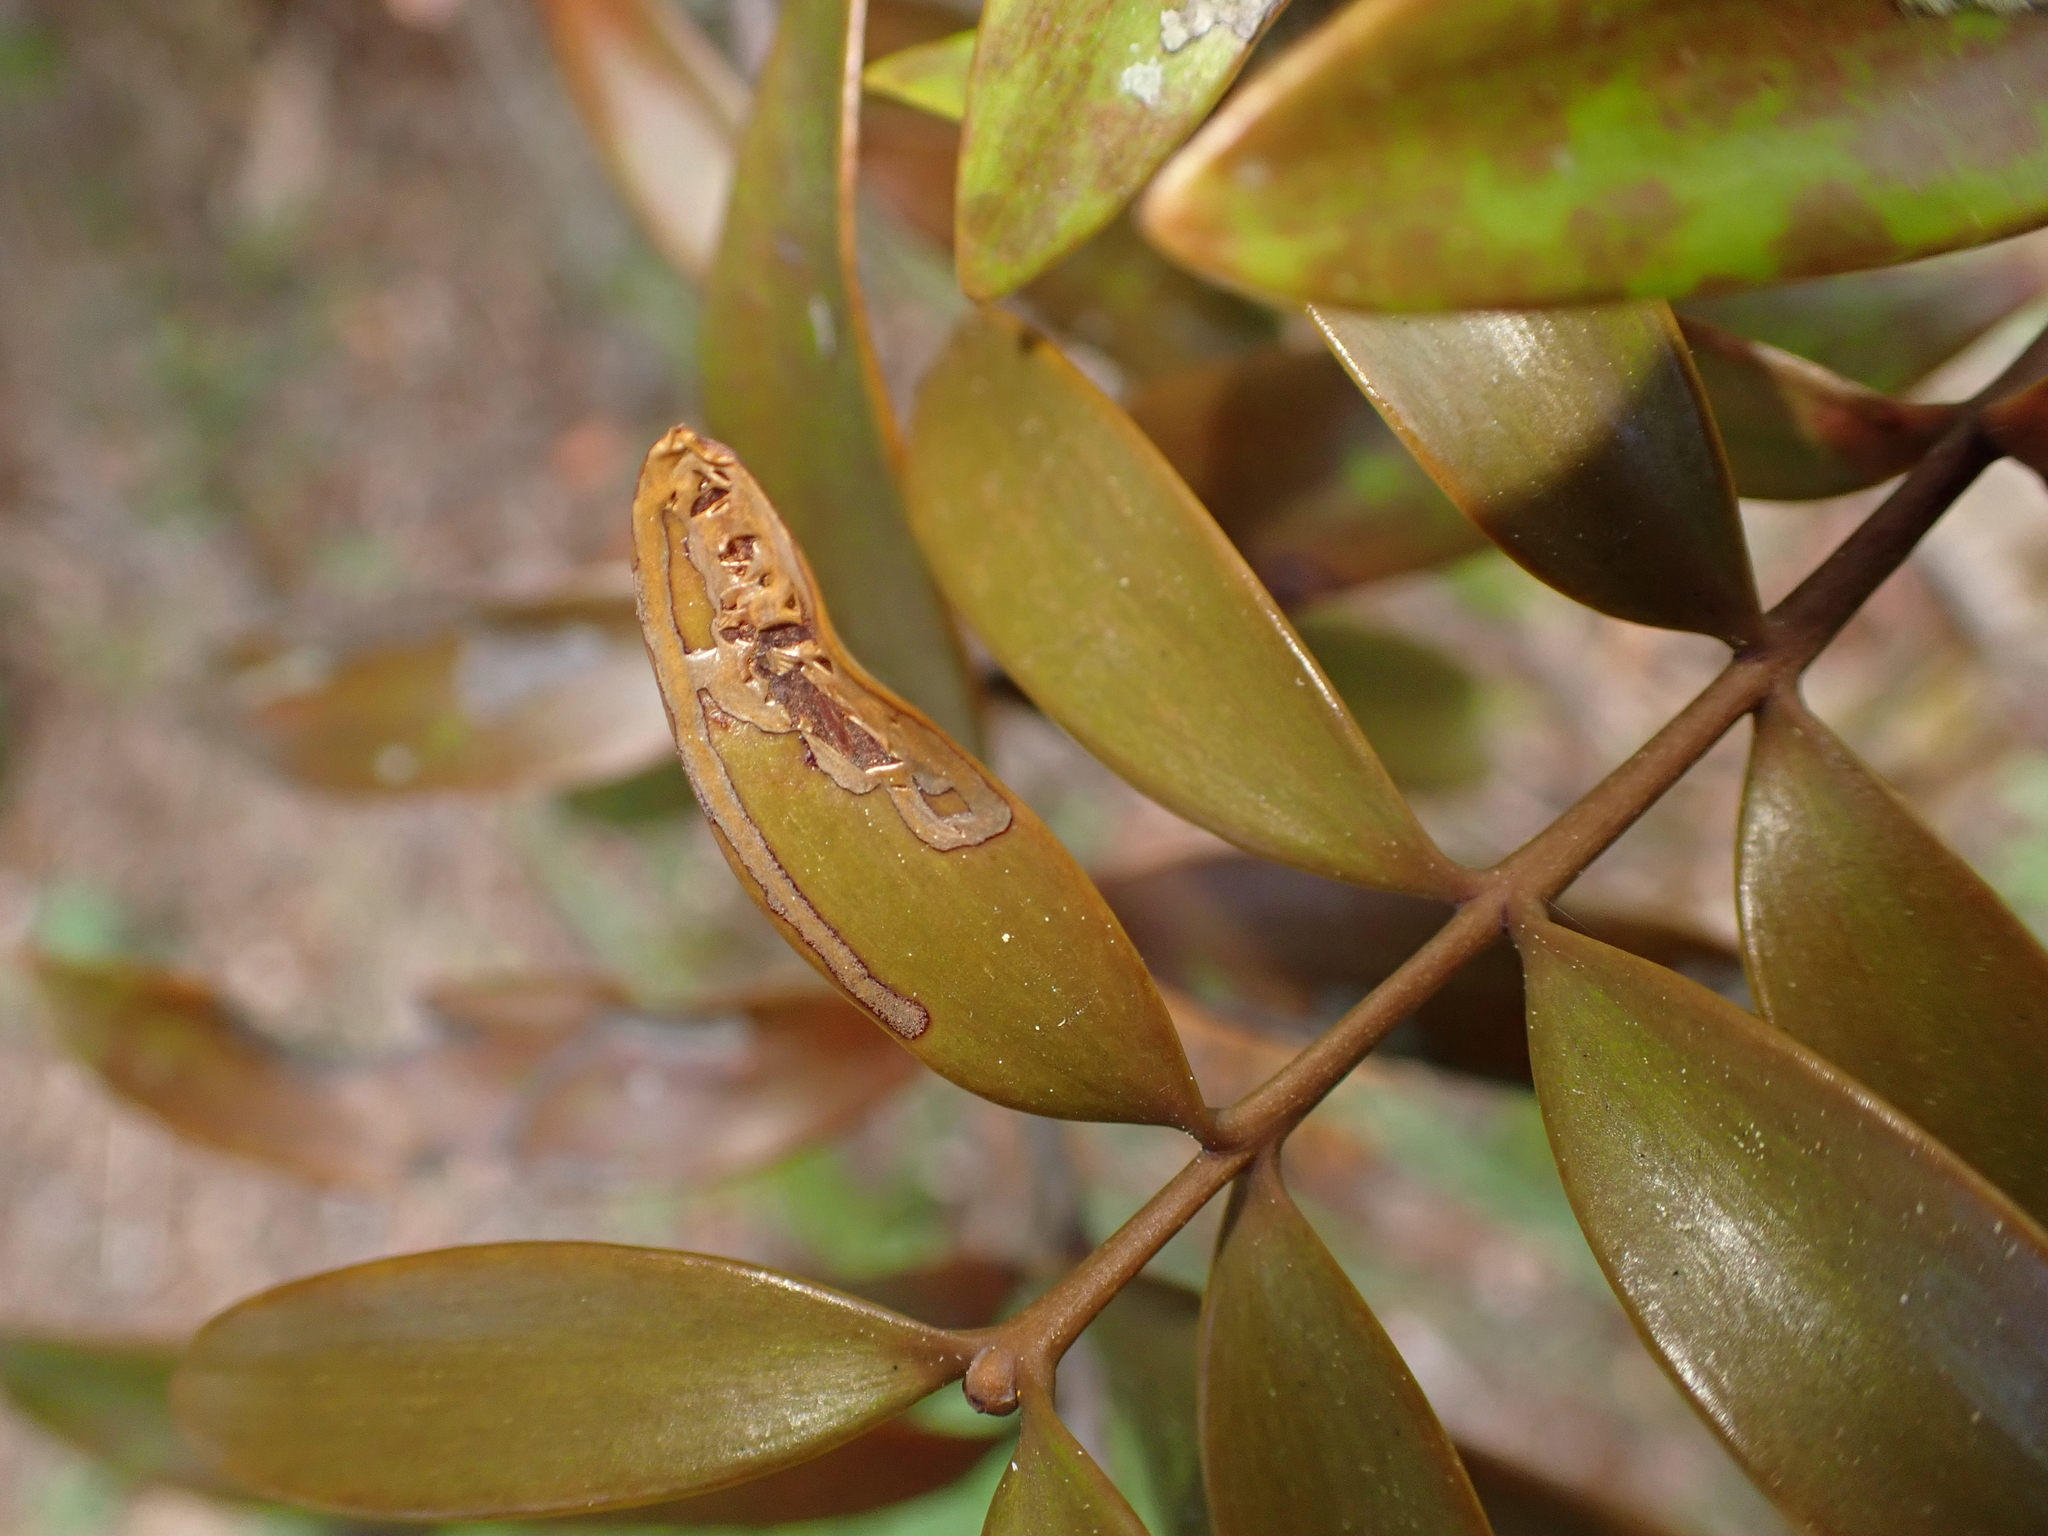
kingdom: Animalia
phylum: Arthropoda
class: Insecta
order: Lepidoptera
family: Gracillariidae
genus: Acrocercops
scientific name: Acrocercops leucotoma
